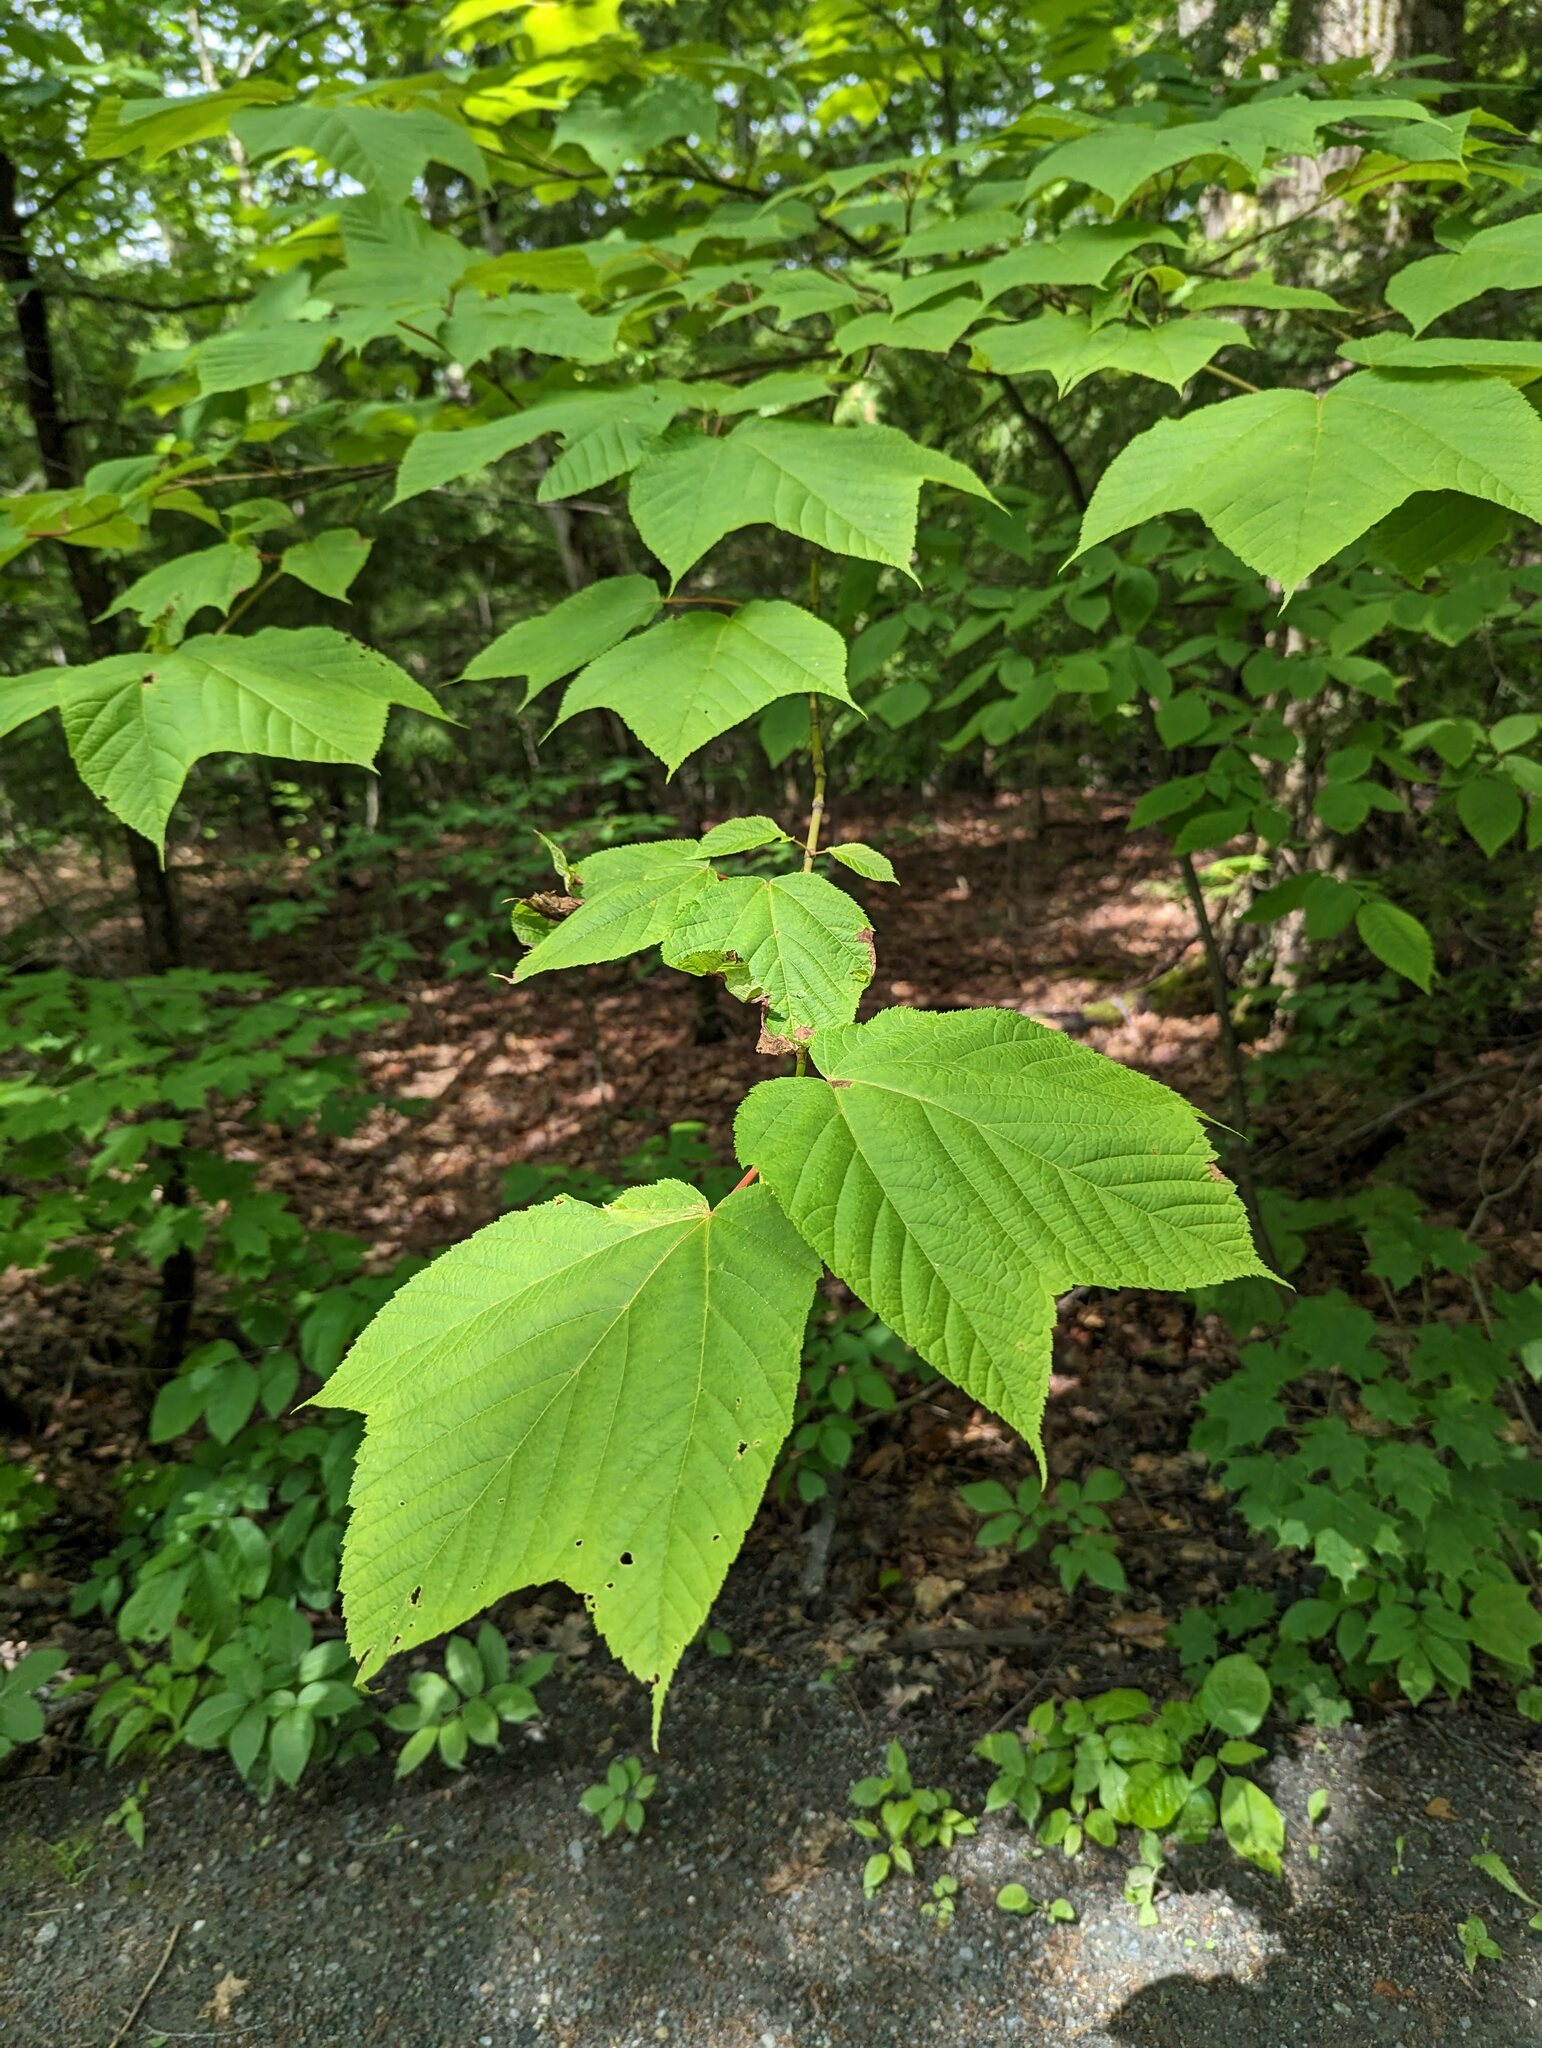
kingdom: Plantae
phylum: Tracheophyta
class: Magnoliopsida
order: Sapindales
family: Sapindaceae
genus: Acer
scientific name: Acer pensylvanicum
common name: Moosewood
